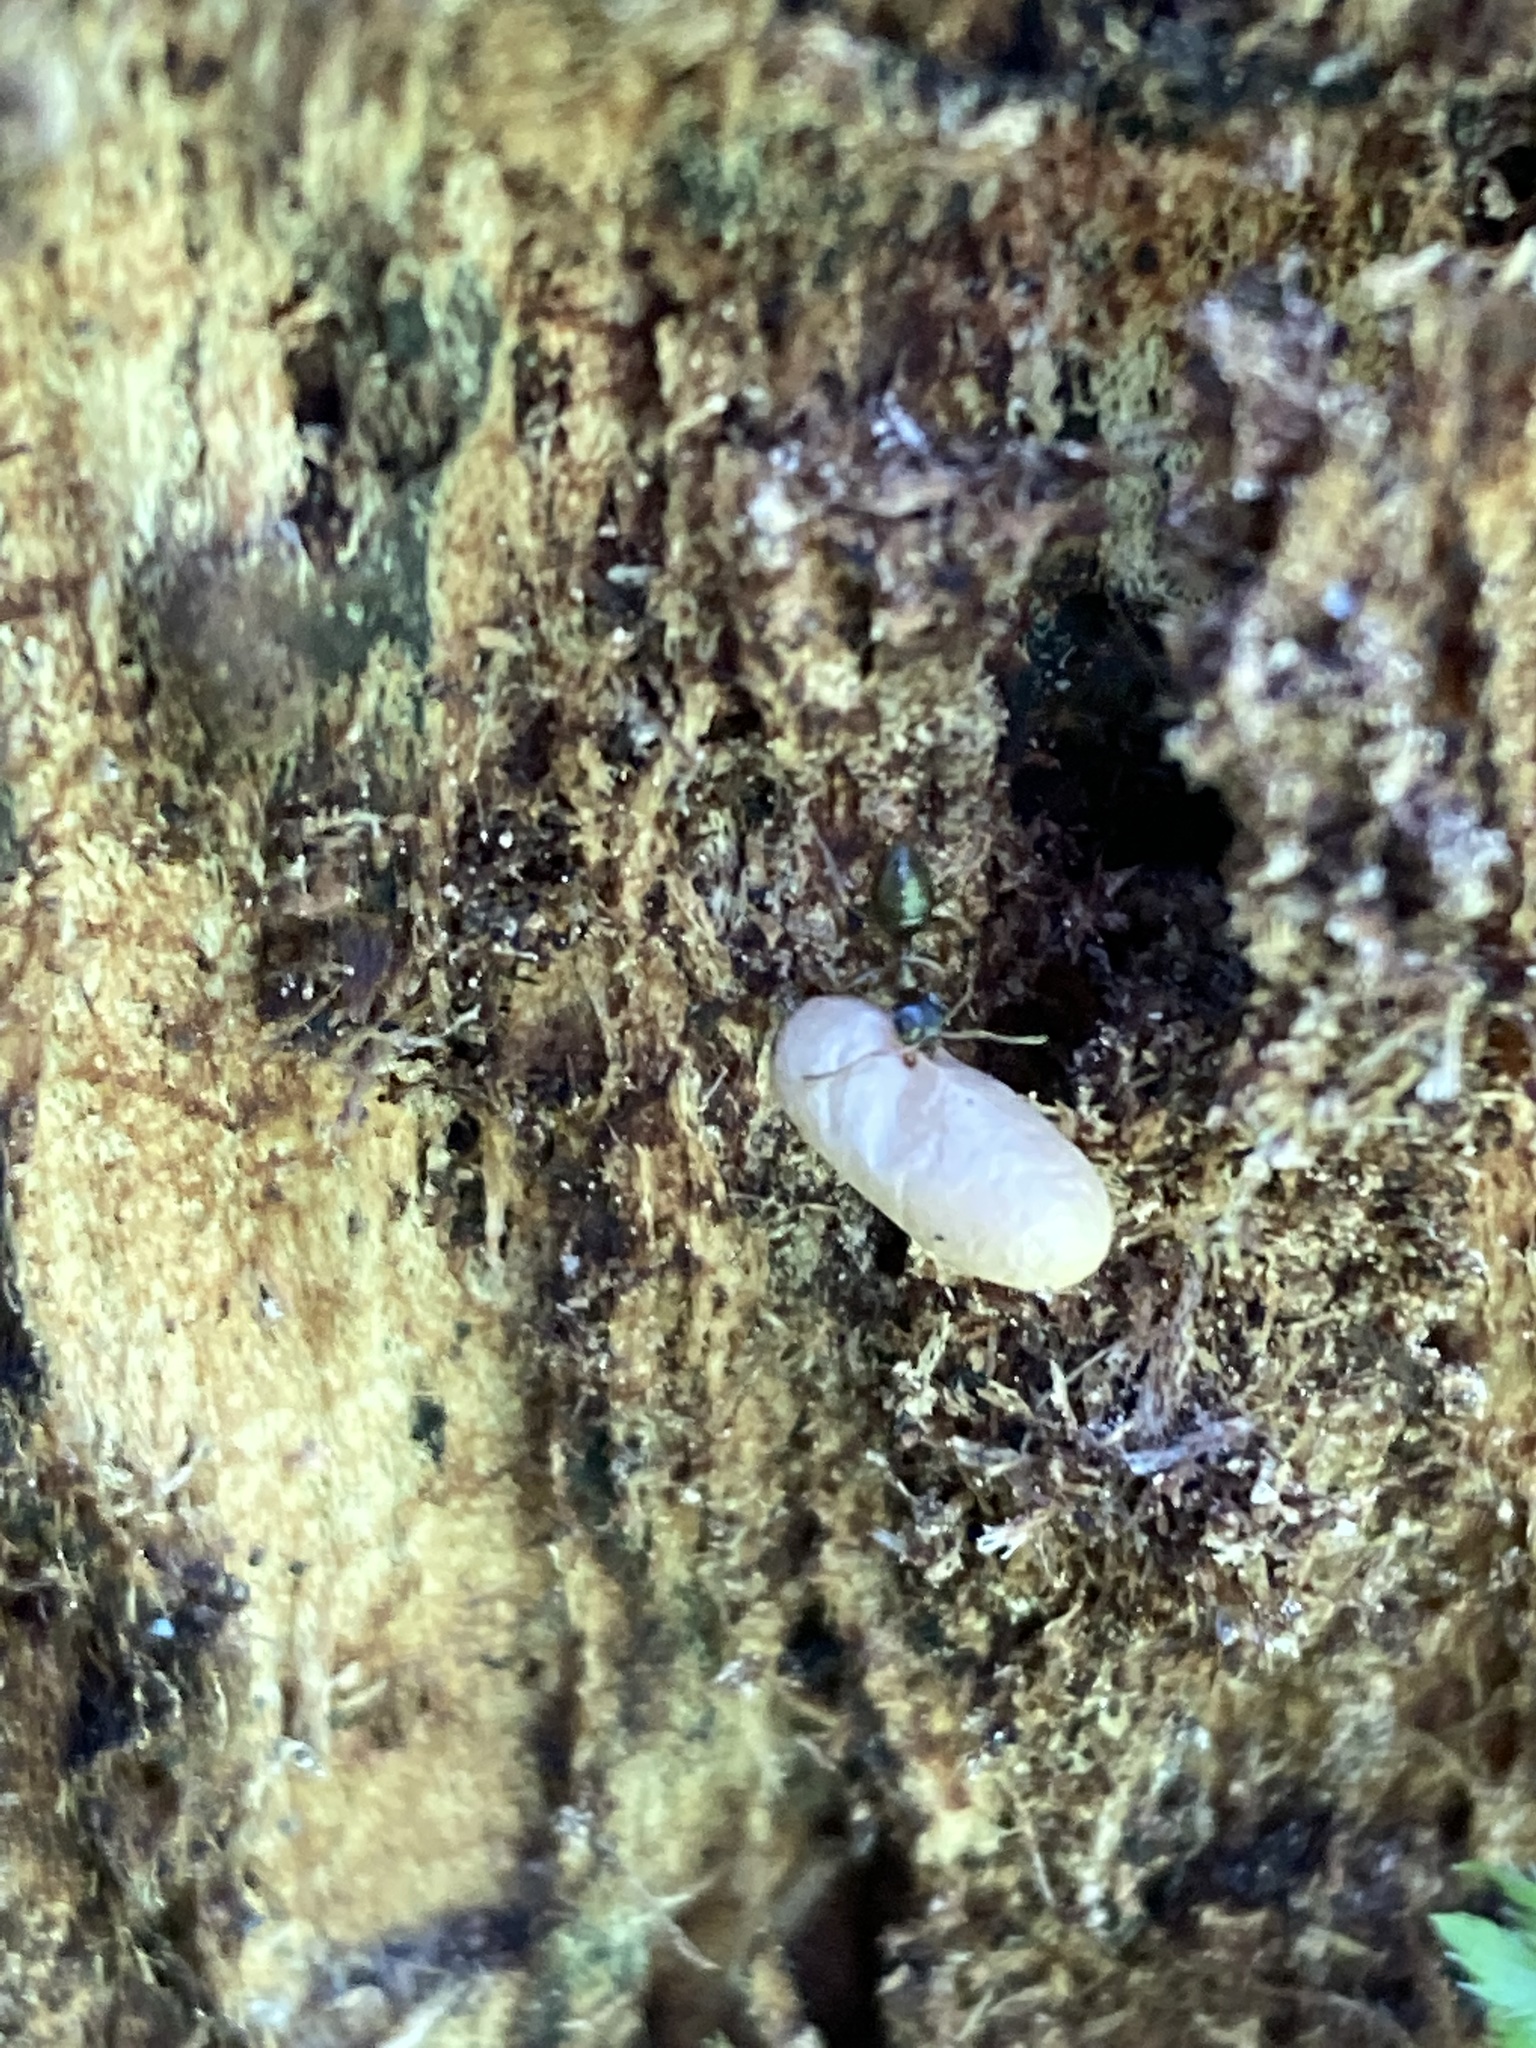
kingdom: Animalia
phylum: Arthropoda
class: Insecta
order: Hymenoptera
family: Formicidae
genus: Lasius
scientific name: Lasius americanus
